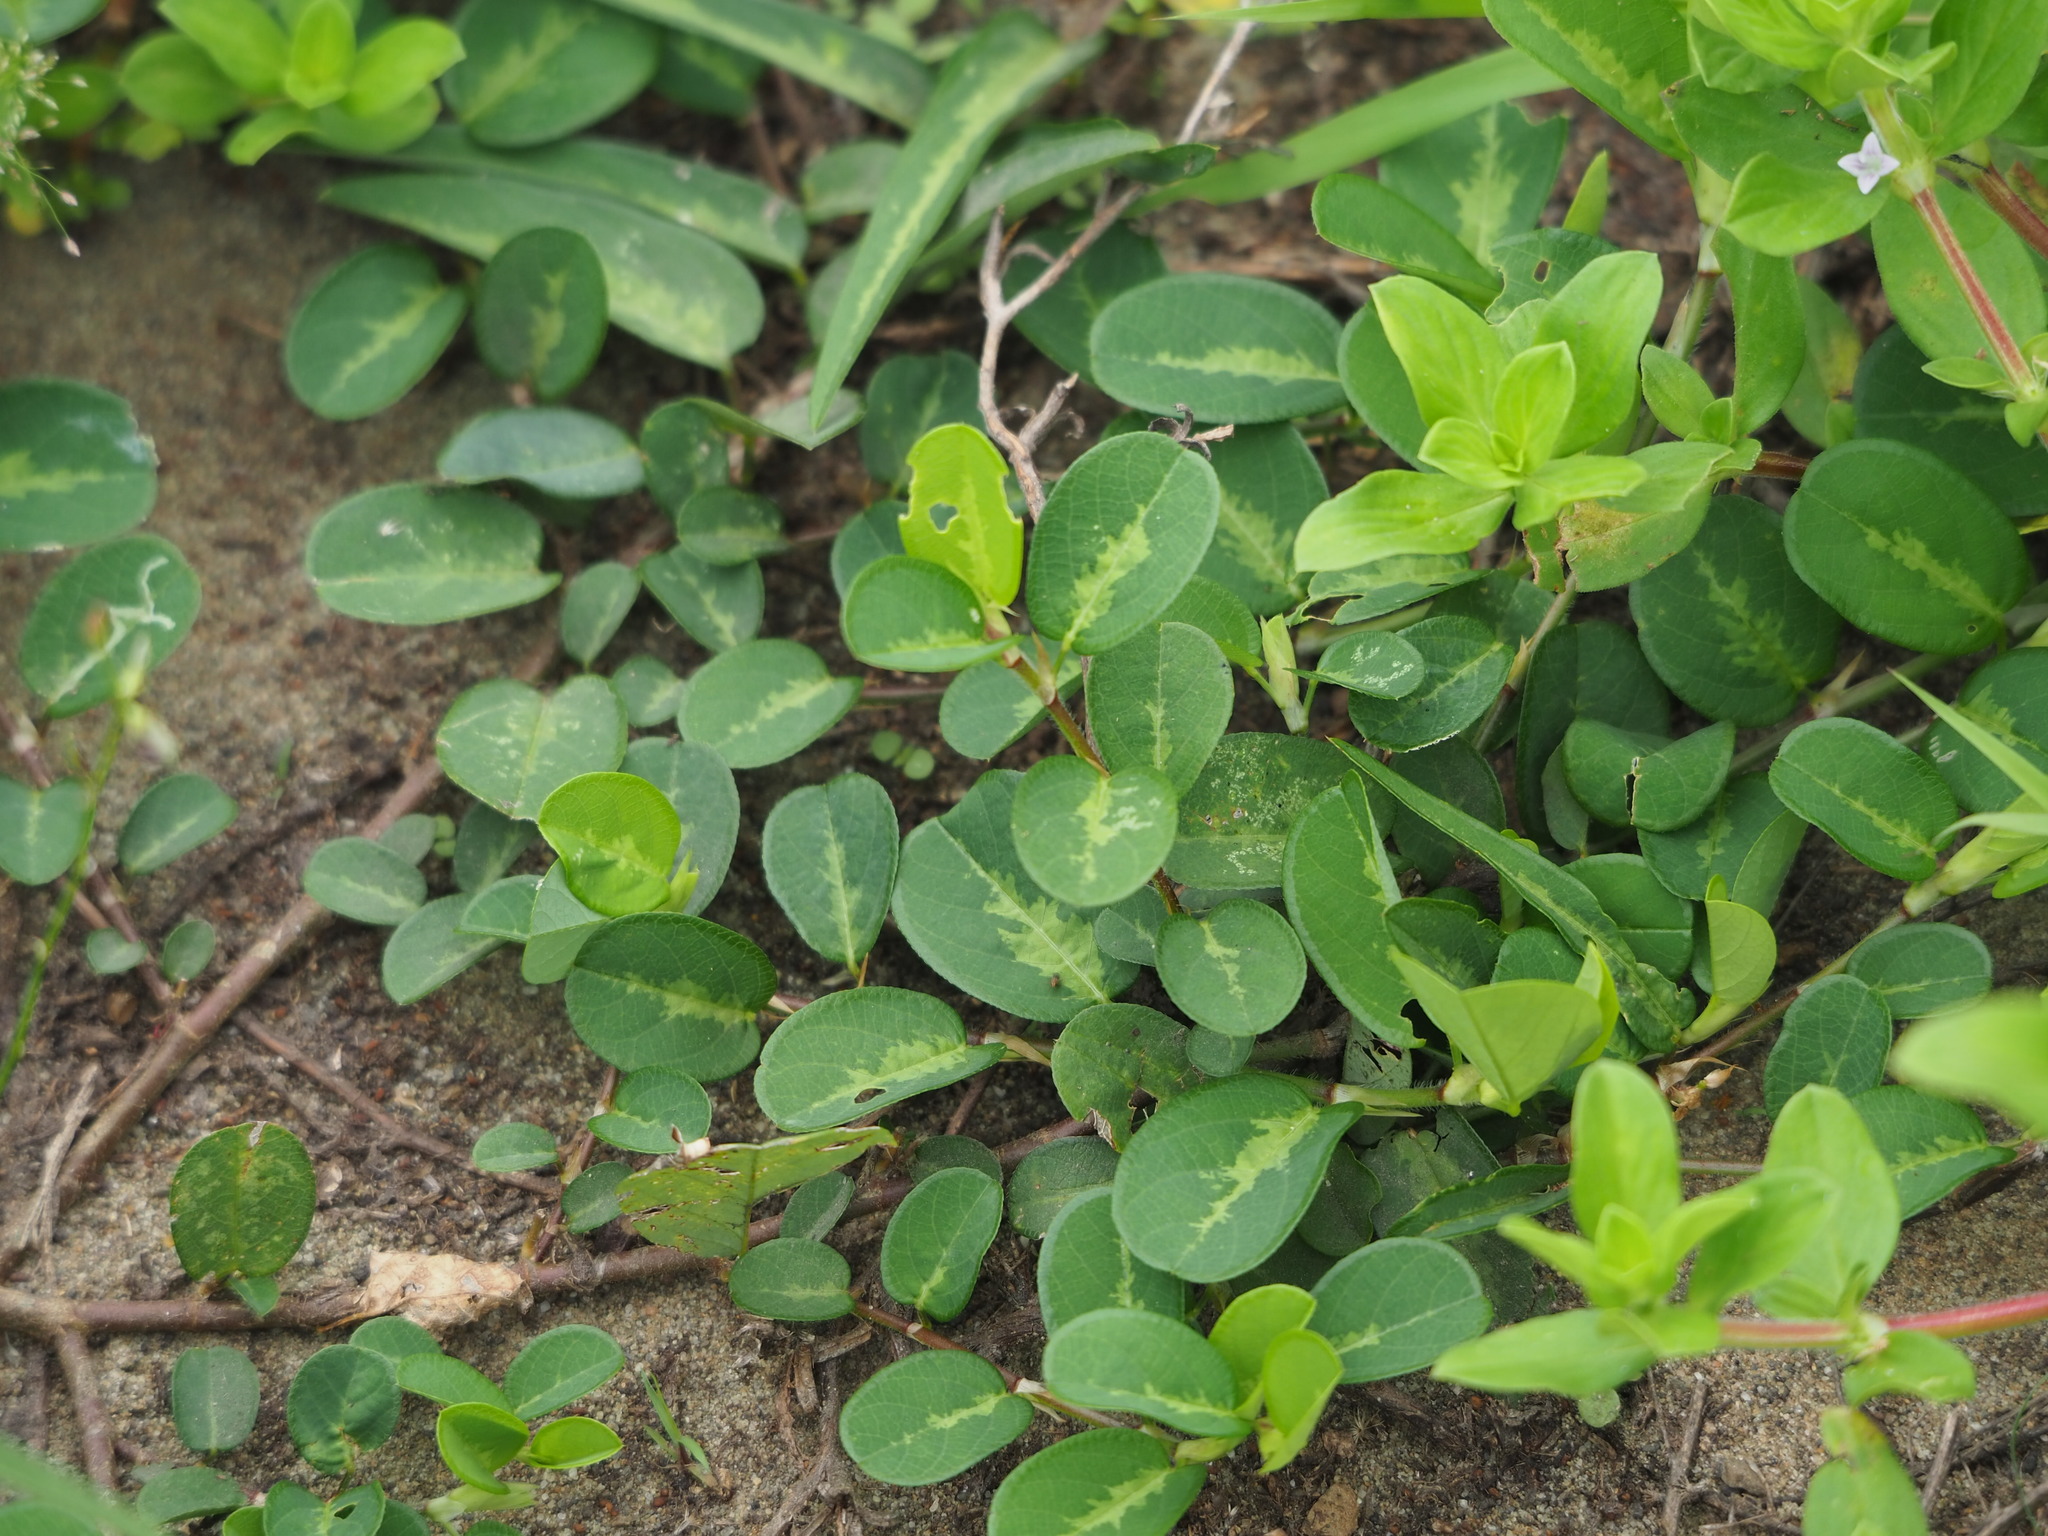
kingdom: Plantae
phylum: Tracheophyta
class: Magnoliopsida
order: Fabales
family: Fabaceae
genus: Alysicarpus
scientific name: Alysicarpus ovalifolius
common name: Alyce clover
